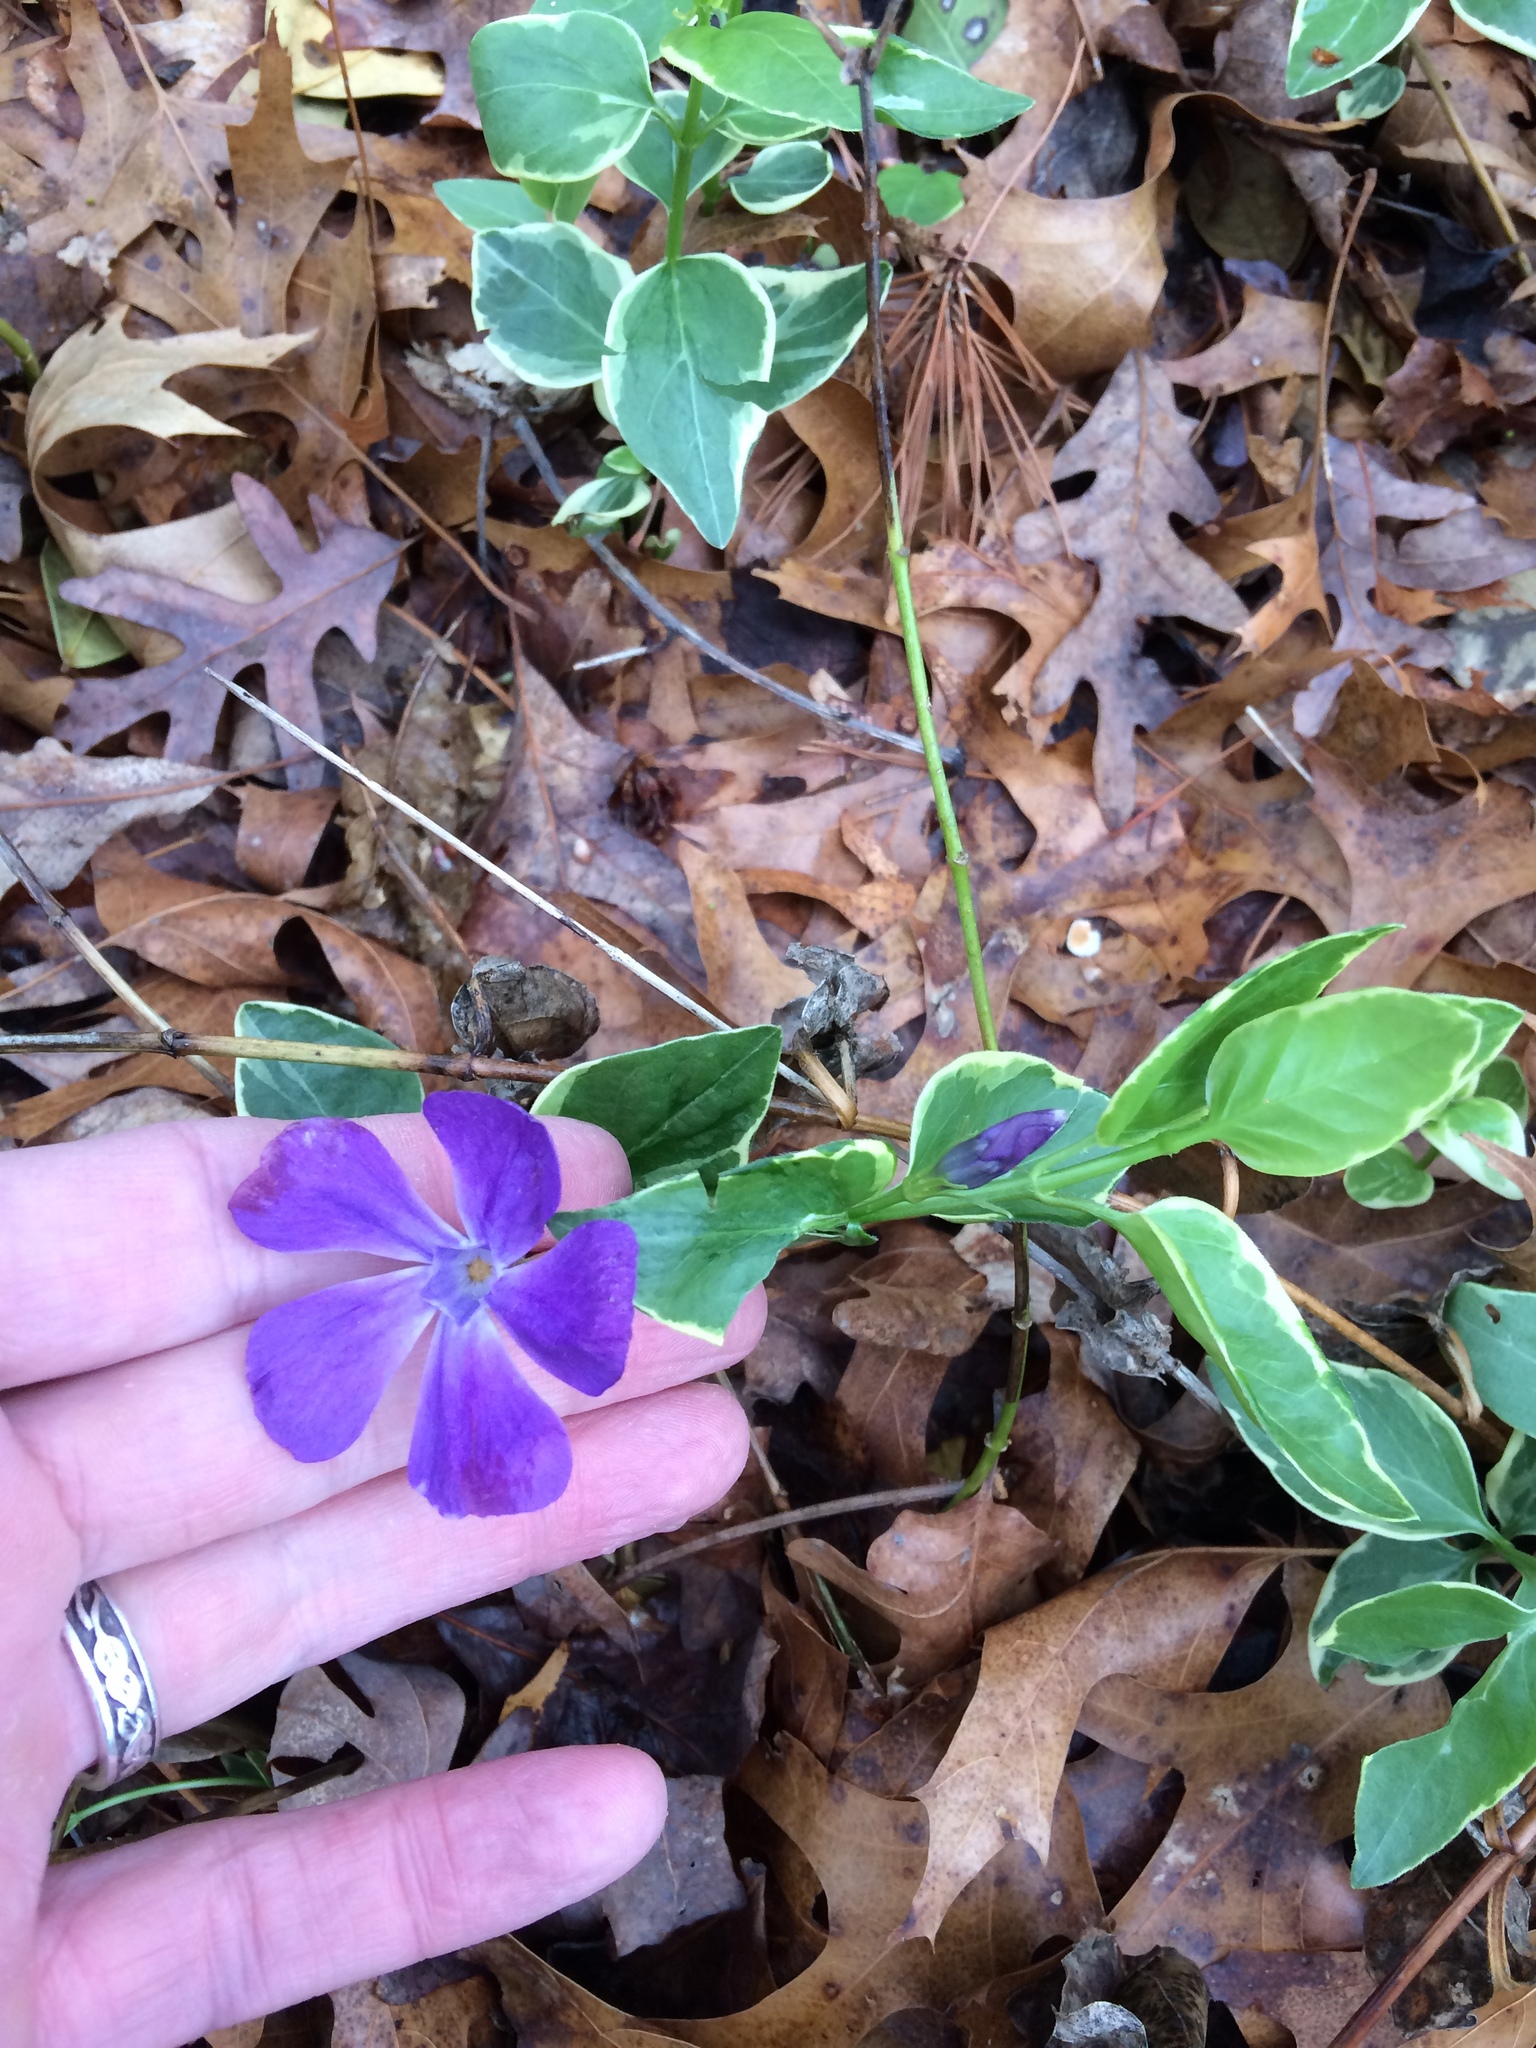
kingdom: Plantae
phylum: Tracheophyta
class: Magnoliopsida
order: Gentianales
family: Apocynaceae
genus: Vinca
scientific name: Vinca major
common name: Greater periwinkle
